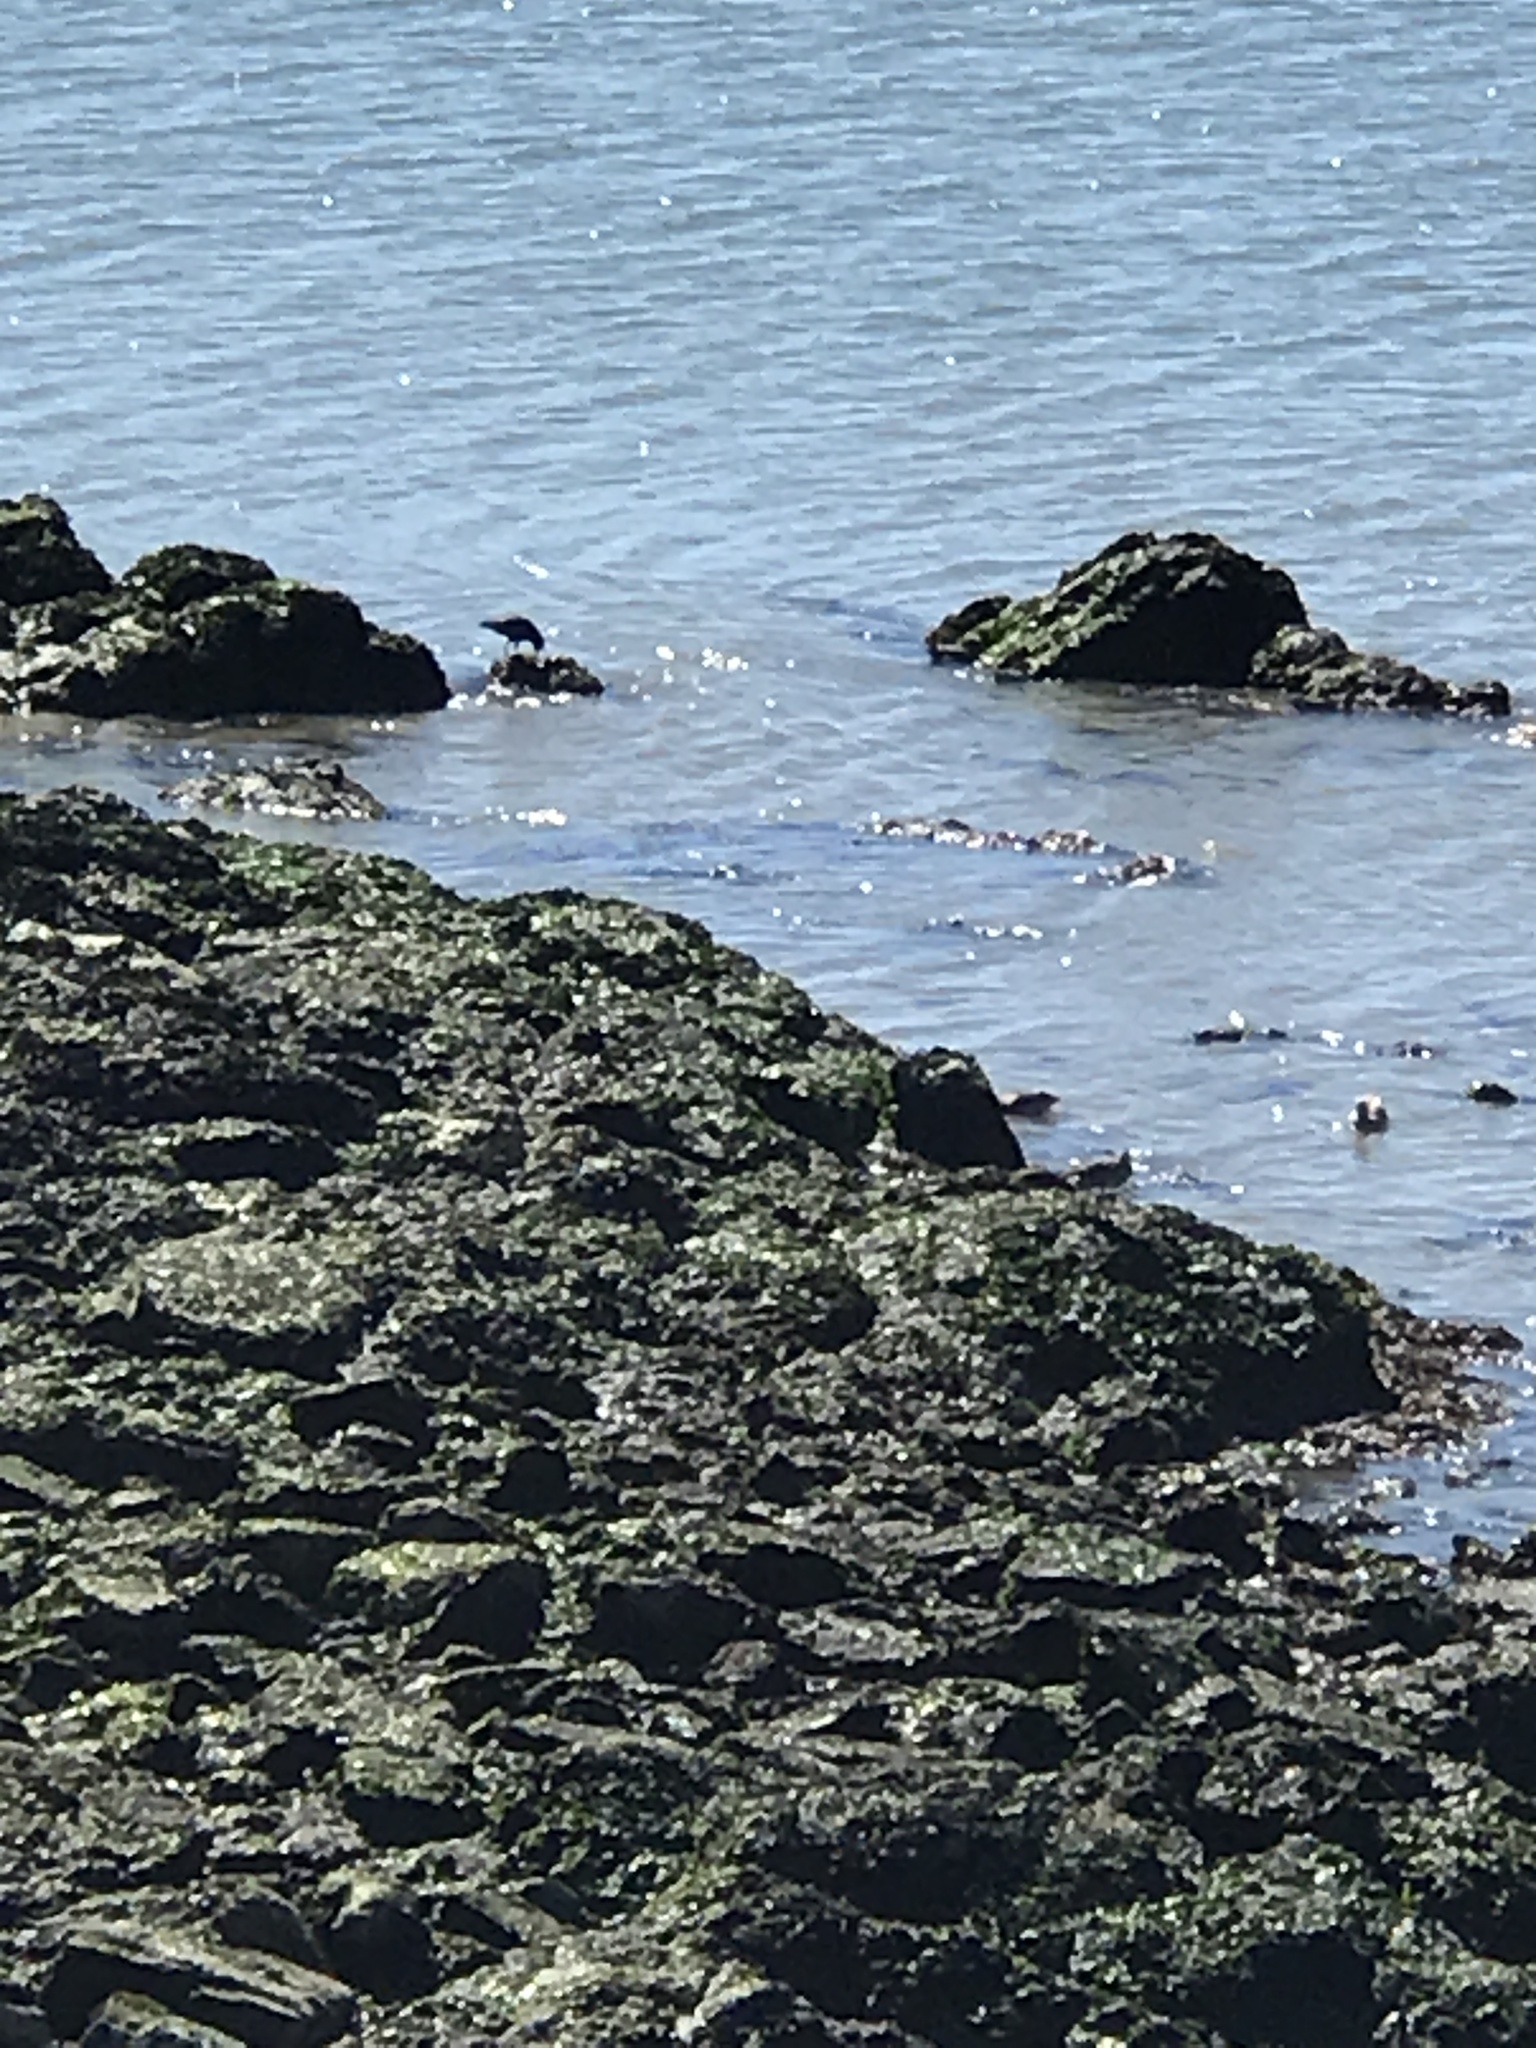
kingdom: Animalia
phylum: Chordata
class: Aves
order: Charadriiformes
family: Haematopodidae
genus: Haematopus
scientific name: Haematopus bachmani
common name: Black oystercatcher
